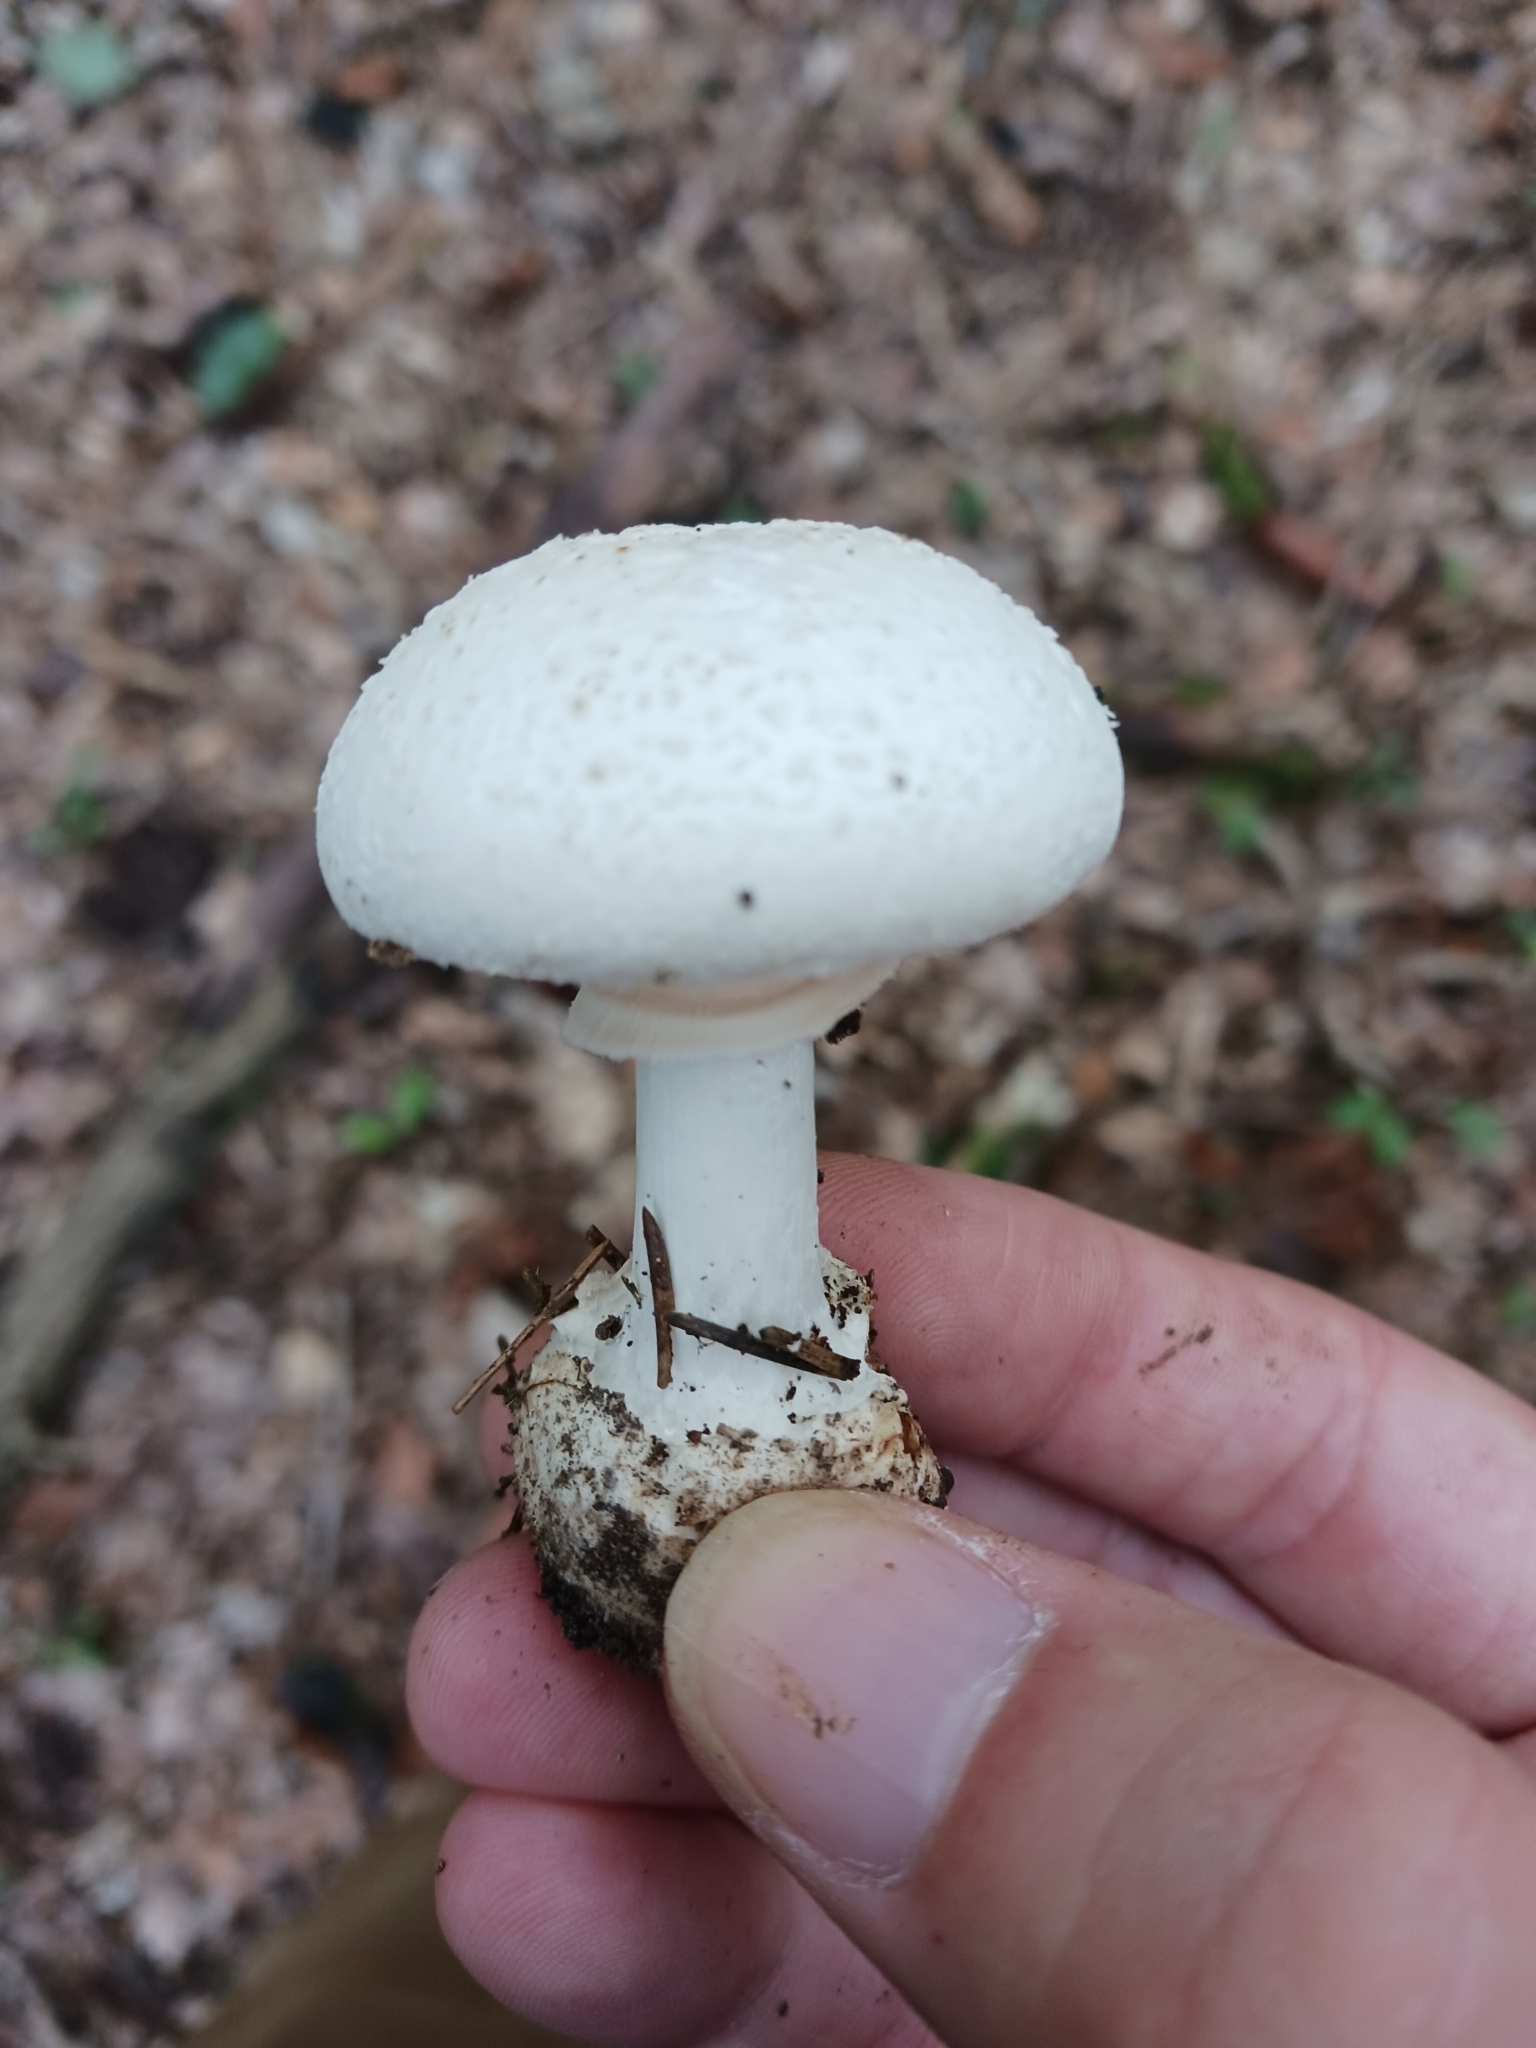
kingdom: Fungi
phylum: Basidiomycota
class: Agaricomycetes
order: Agaricales
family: Amanitaceae
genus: Amanita
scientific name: Amanita citrina
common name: False death-cap
